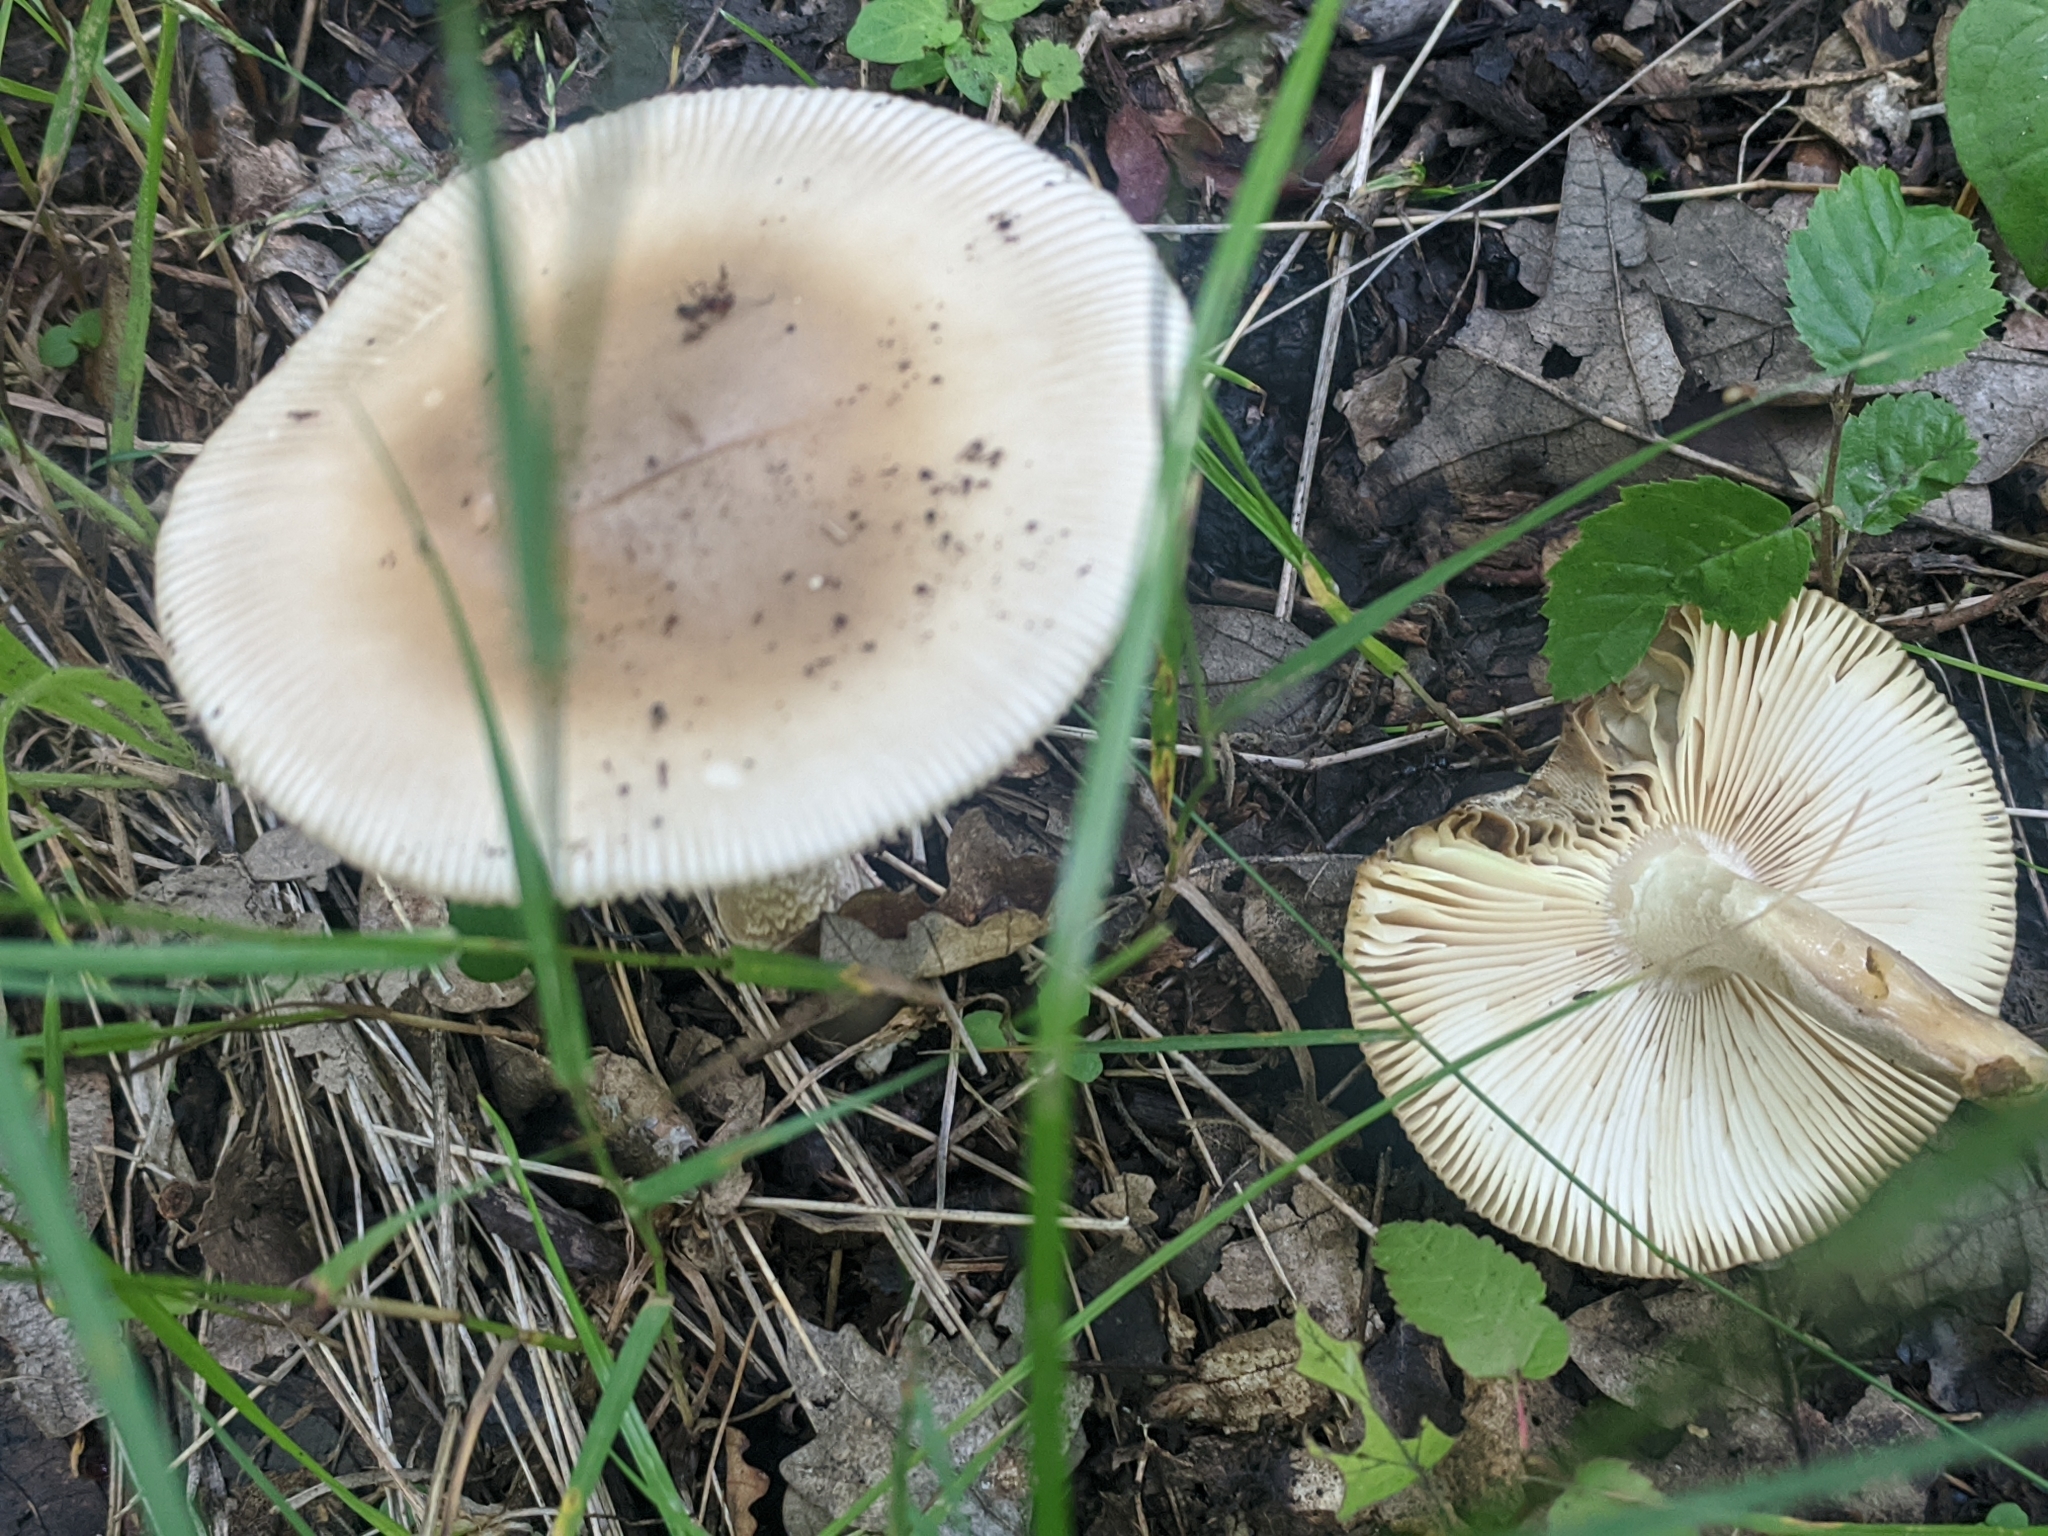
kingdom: Fungi
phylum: Basidiomycota
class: Agaricomycetes
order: Agaricales
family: Amanitaceae
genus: Amanita
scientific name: Amanita battarrae
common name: Banded amanita
